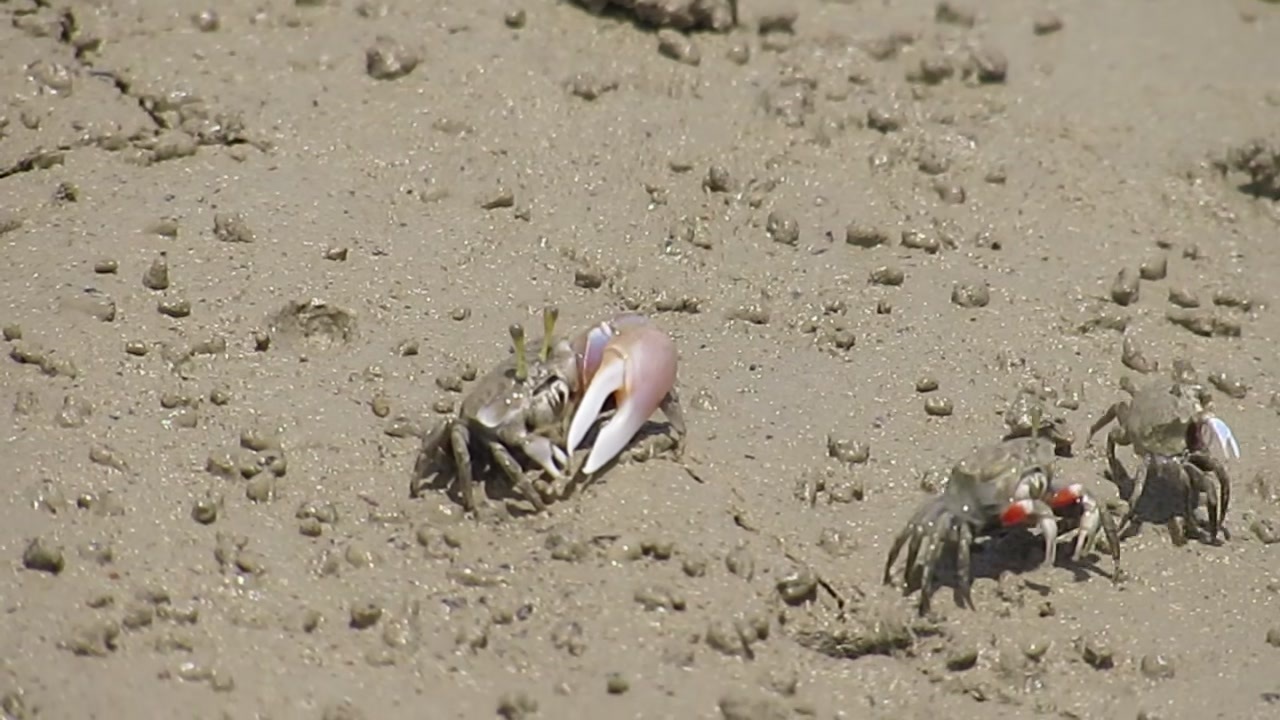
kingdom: Animalia
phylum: Arthropoda
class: Malacostraca
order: Decapoda
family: Ocypodidae
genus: Tubuca
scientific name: Tubuca seismella
